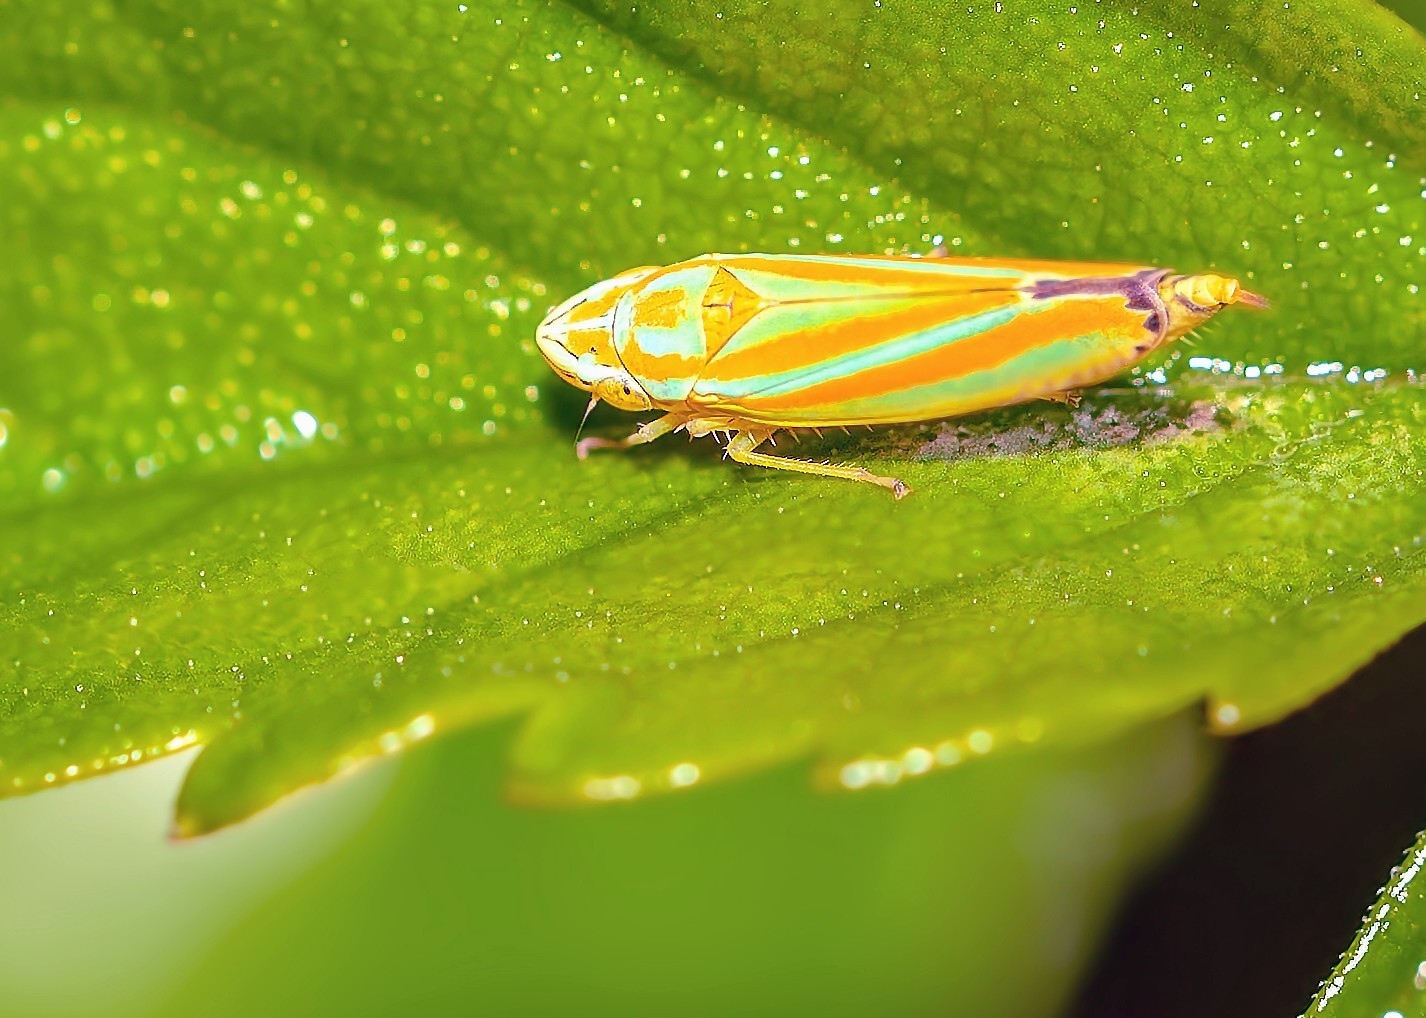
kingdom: Animalia
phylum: Arthropoda
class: Insecta
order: Hemiptera
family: Cicadellidae
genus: Graphocephala
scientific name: Graphocephala versuta
